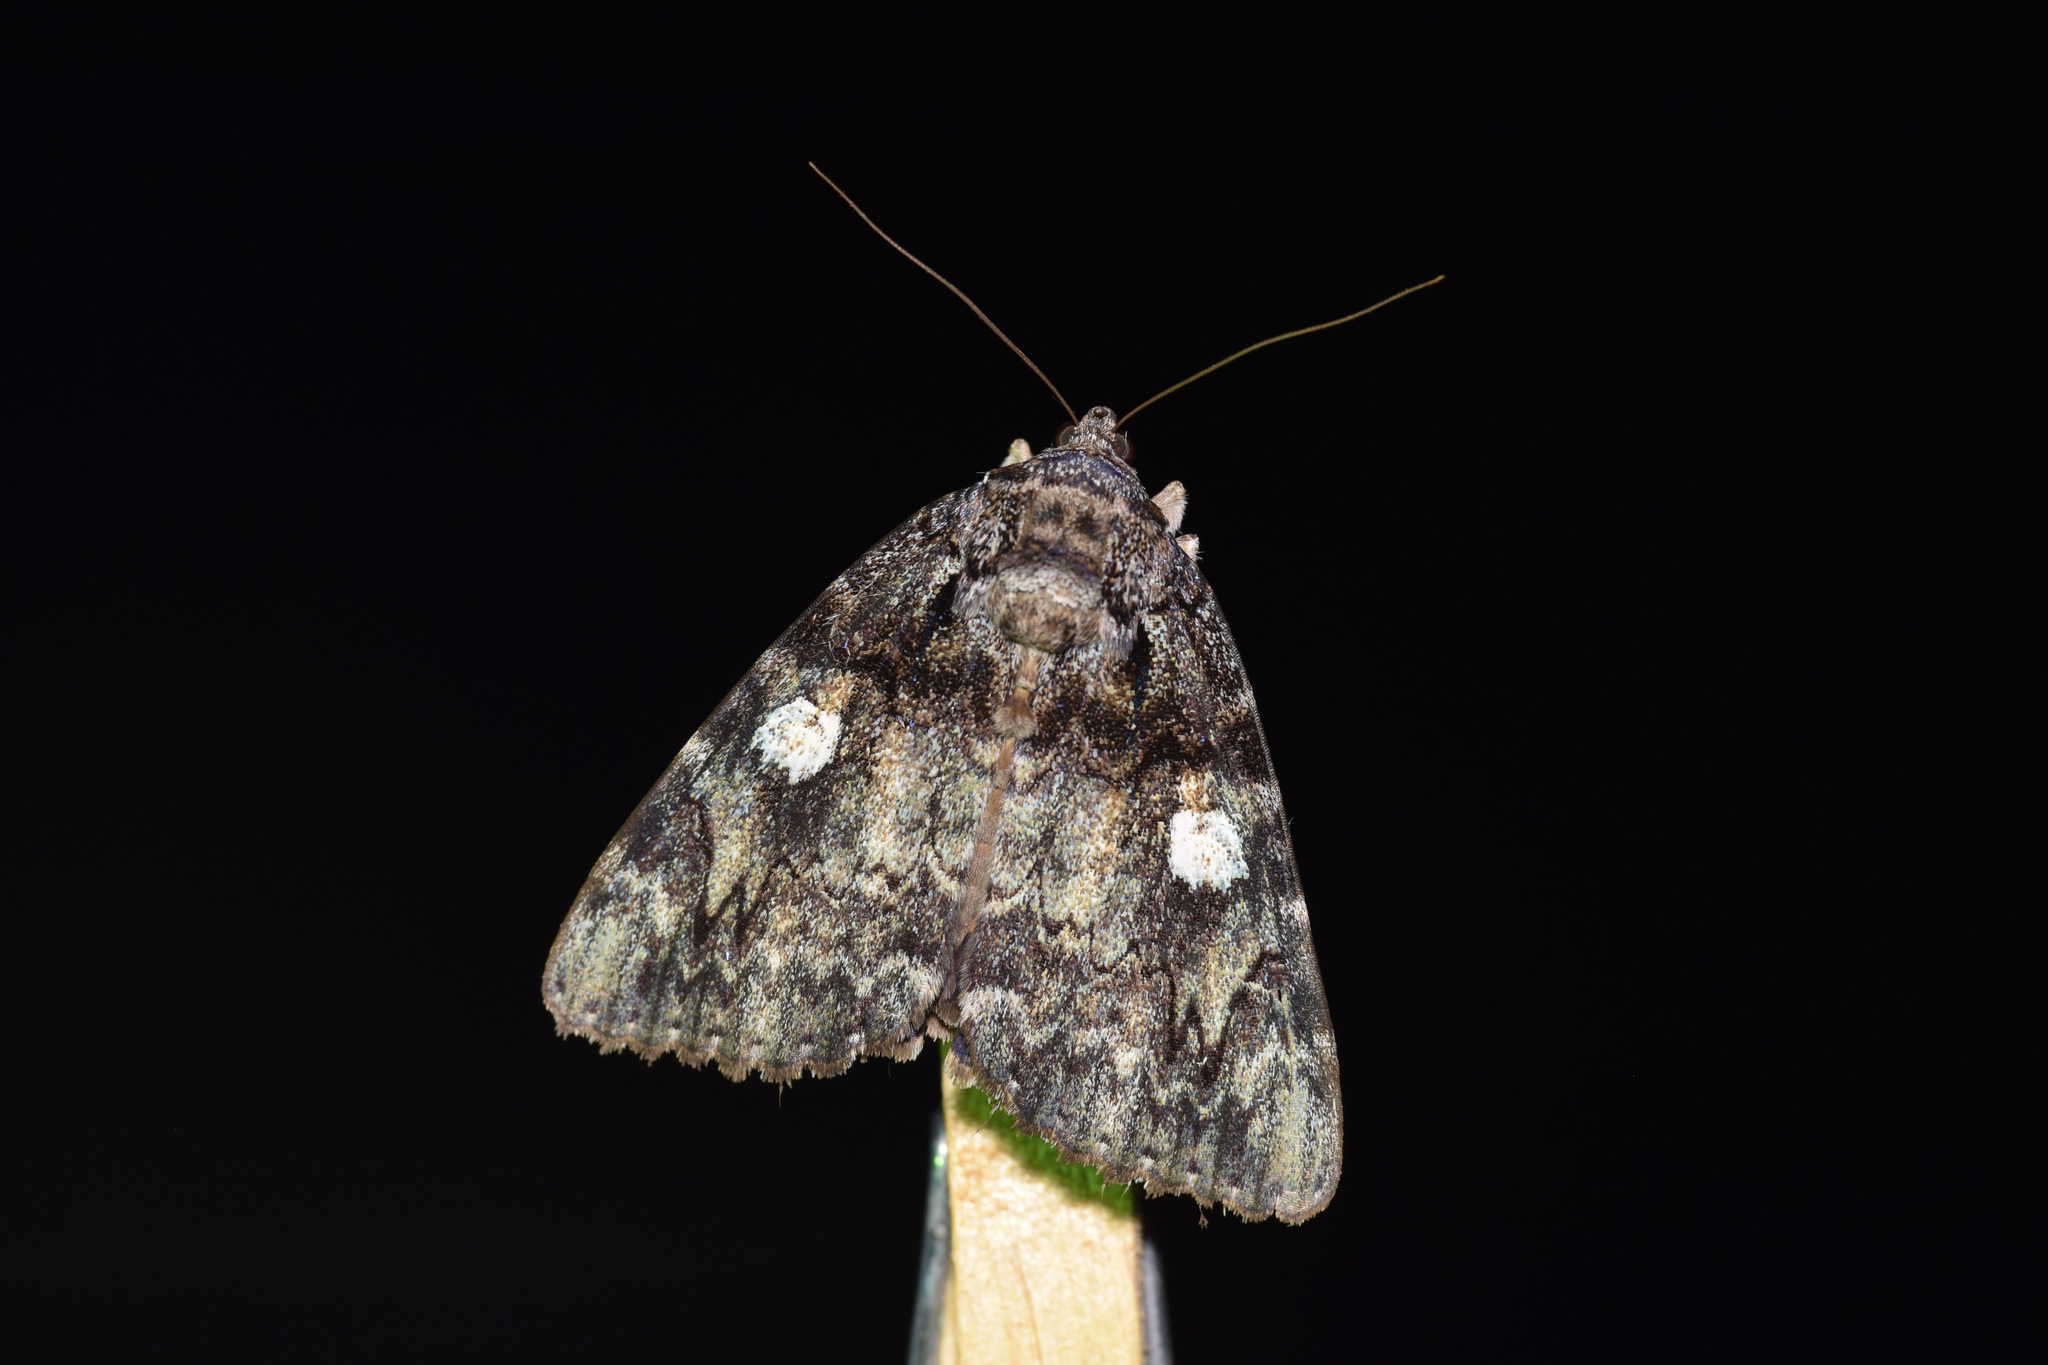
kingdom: Animalia
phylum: Arthropoda
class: Insecta
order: Lepidoptera
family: Erebidae
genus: Catocala
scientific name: Catocala ilia
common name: Ilia underwing
